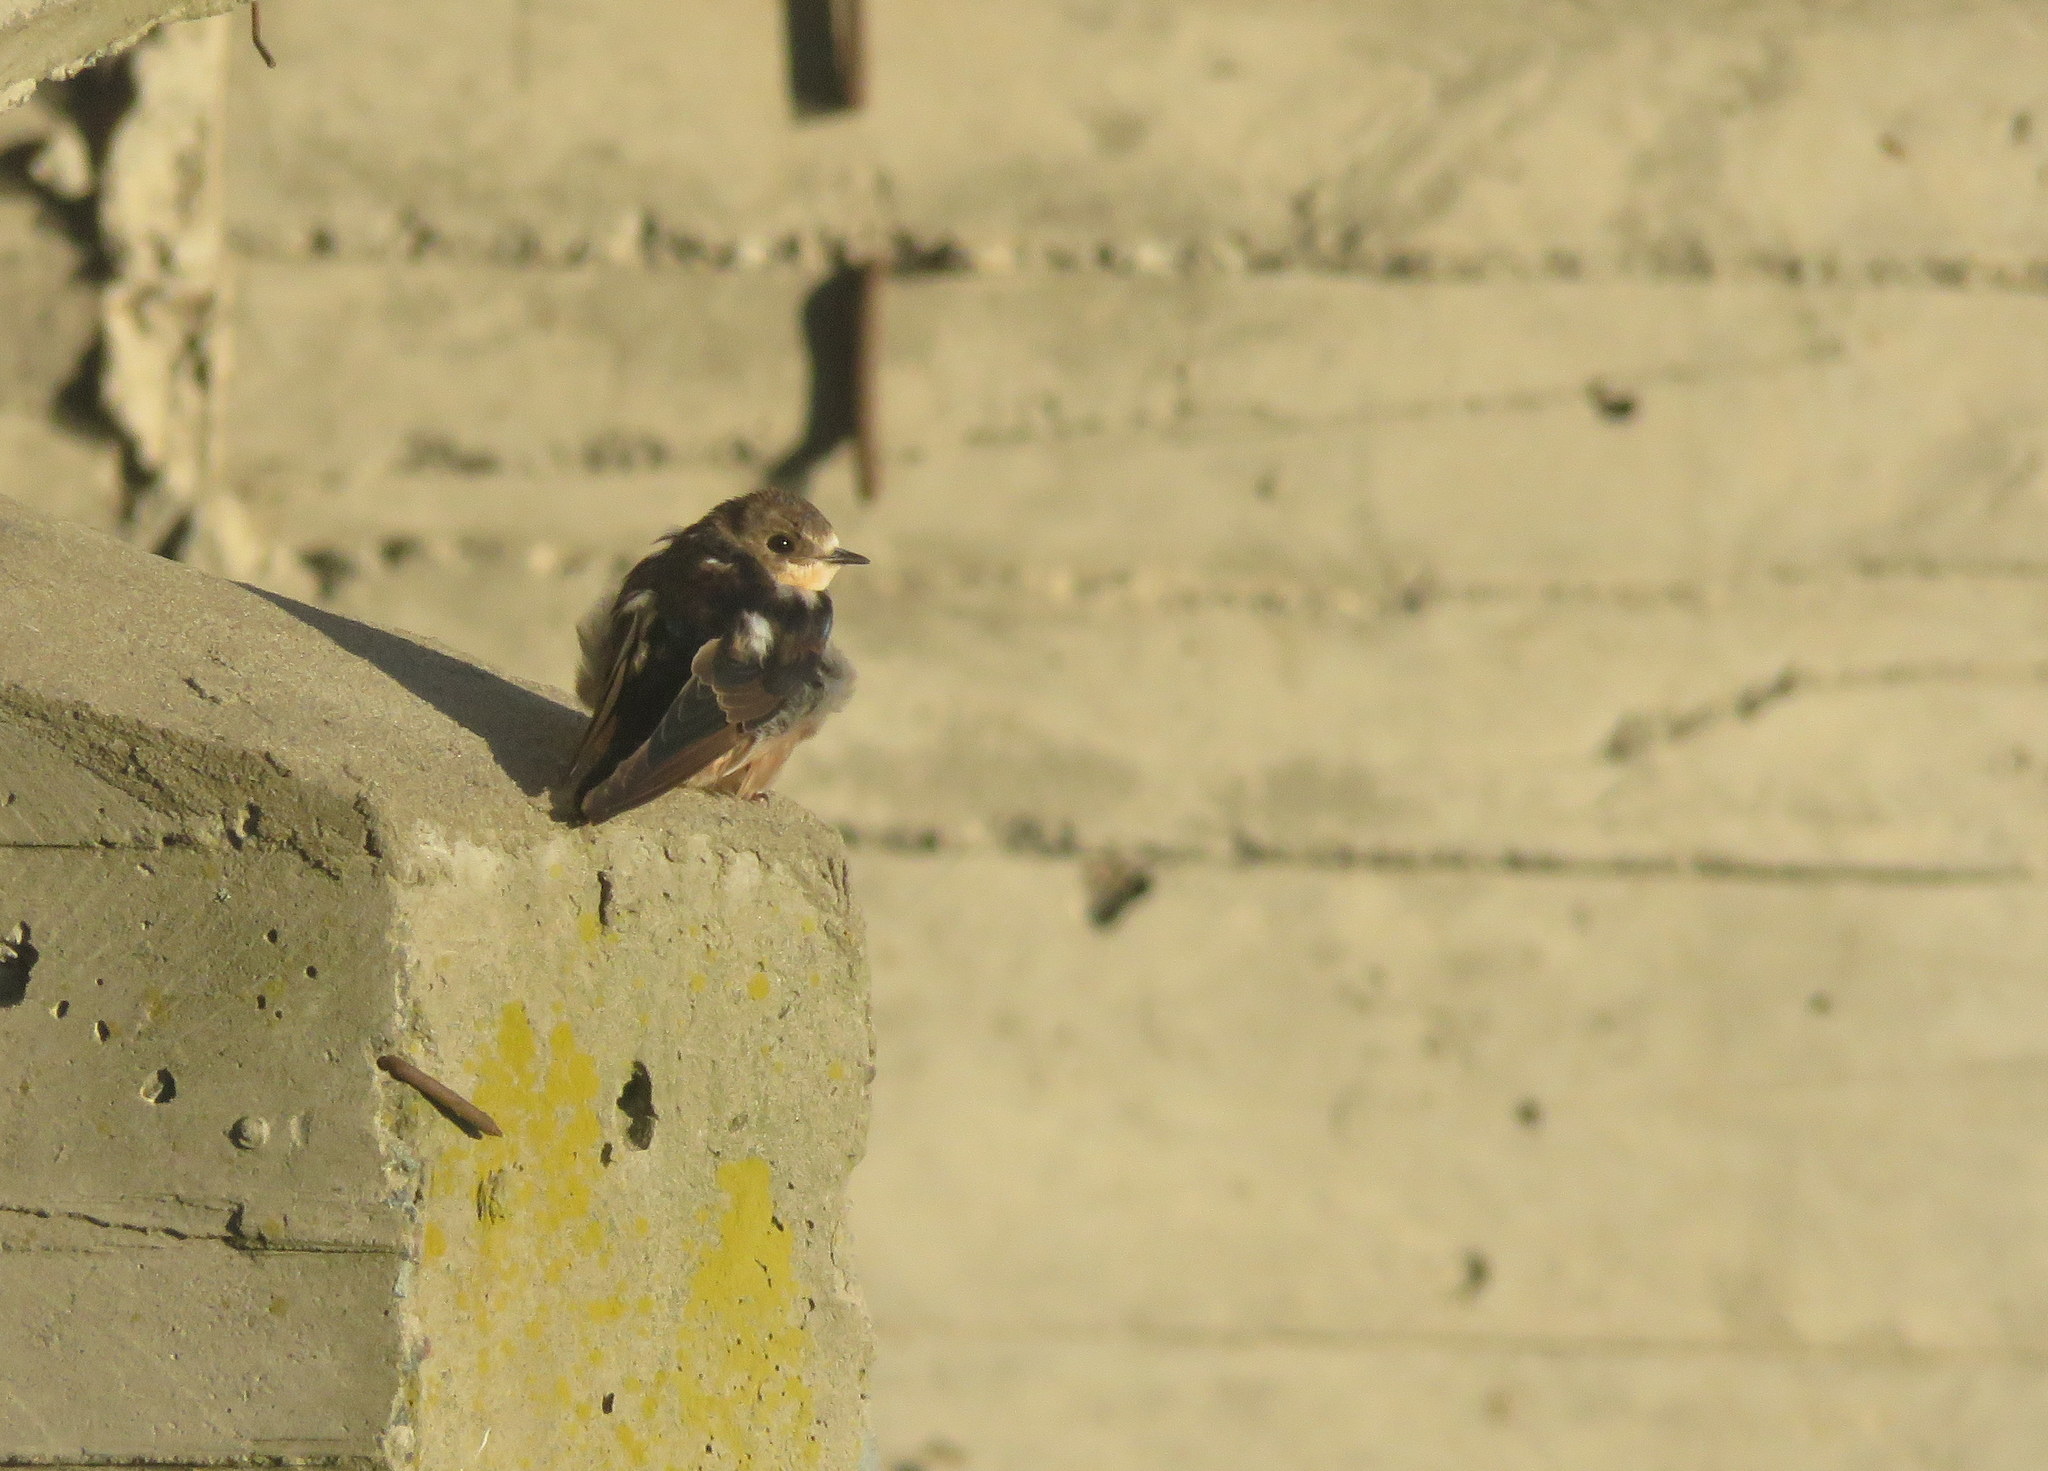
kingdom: Animalia
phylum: Chordata
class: Aves
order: Passeriformes
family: Hirundinidae
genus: Hirundo
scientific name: Hirundo rustica
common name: Barn swallow
